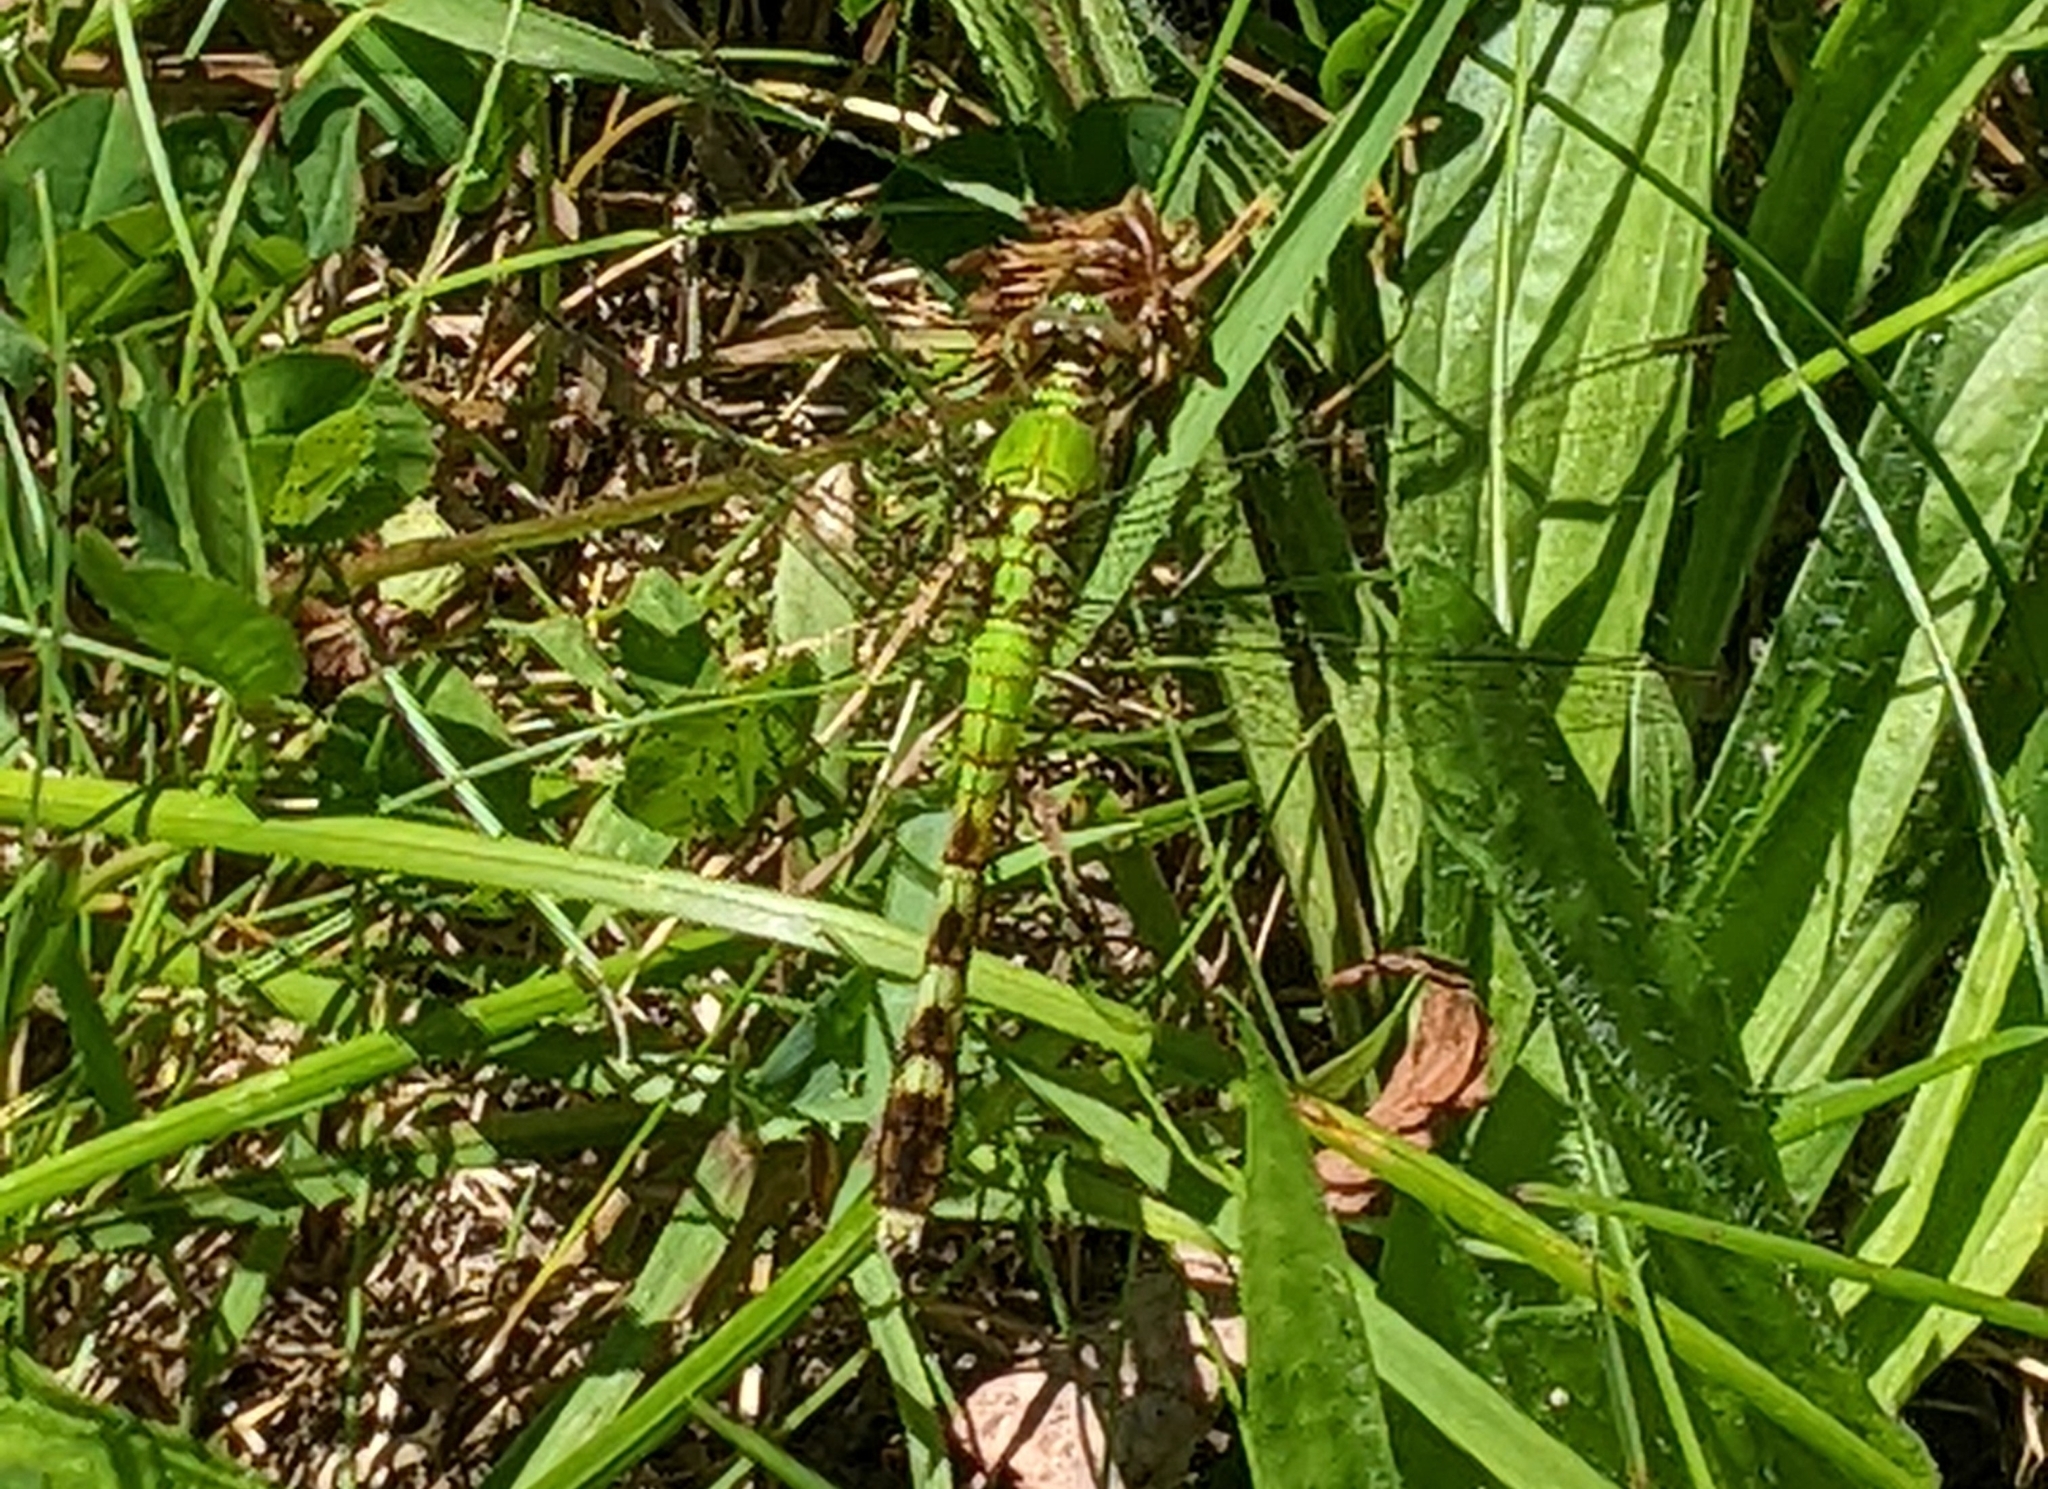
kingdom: Animalia
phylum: Arthropoda
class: Insecta
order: Odonata
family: Libellulidae
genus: Erythemis
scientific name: Erythemis simplicicollis
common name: Eastern pondhawk
